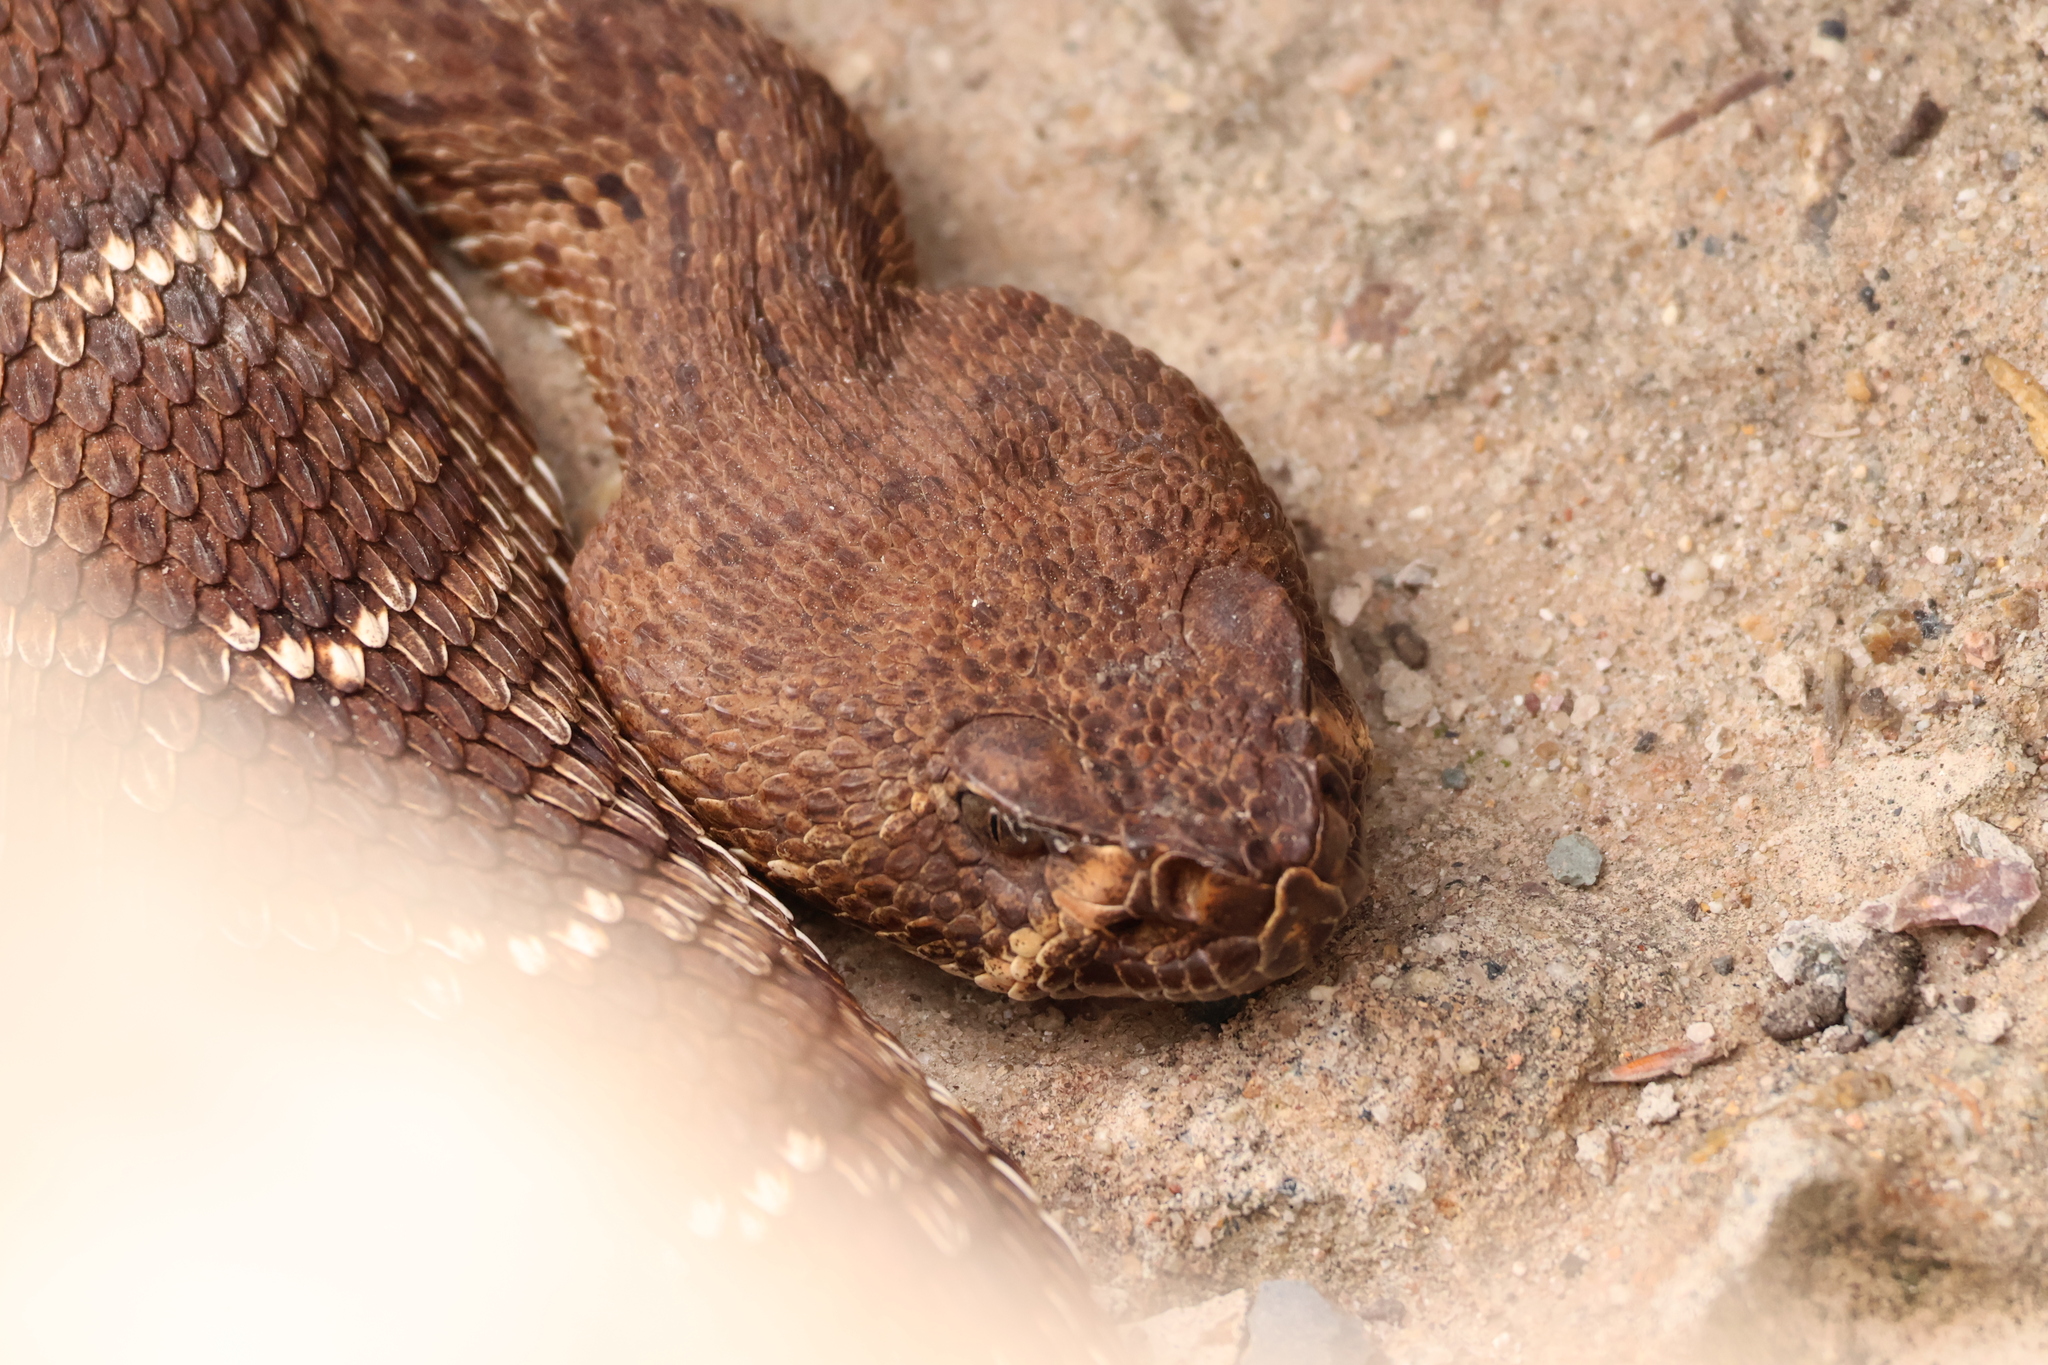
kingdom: Animalia
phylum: Chordata
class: Squamata
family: Viperidae
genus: Crotalus
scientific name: Crotalus ruber
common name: Red diamond rattlesnake
